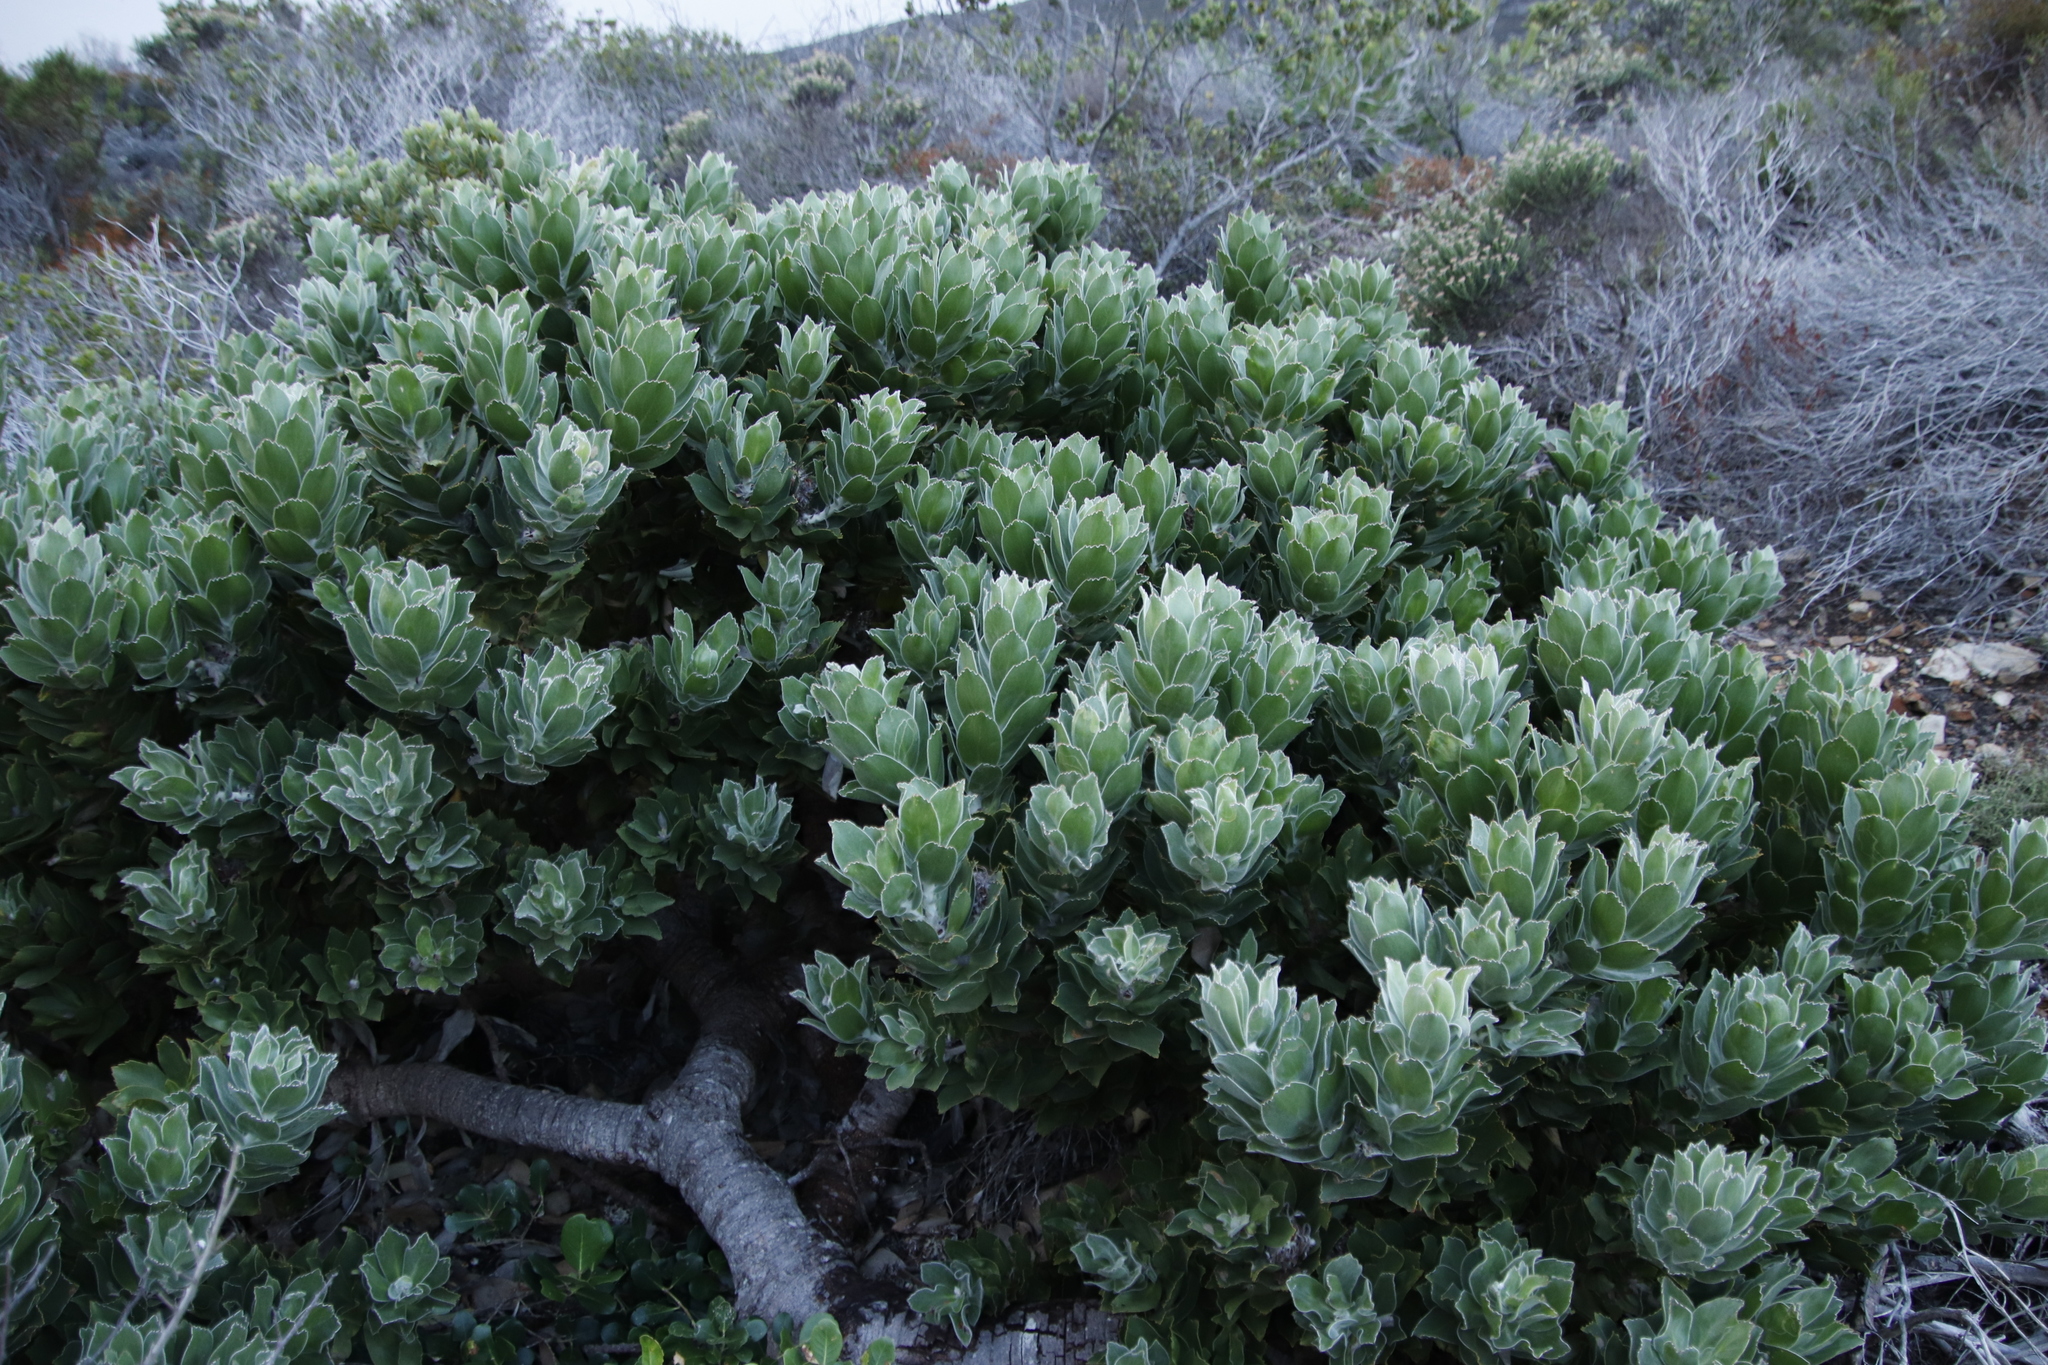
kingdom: Plantae
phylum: Tracheophyta
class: Magnoliopsida
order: Proteales
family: Proteaceae
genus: Leucospermum
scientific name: Leucospermum conocarpodendron
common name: Tree pincushion
